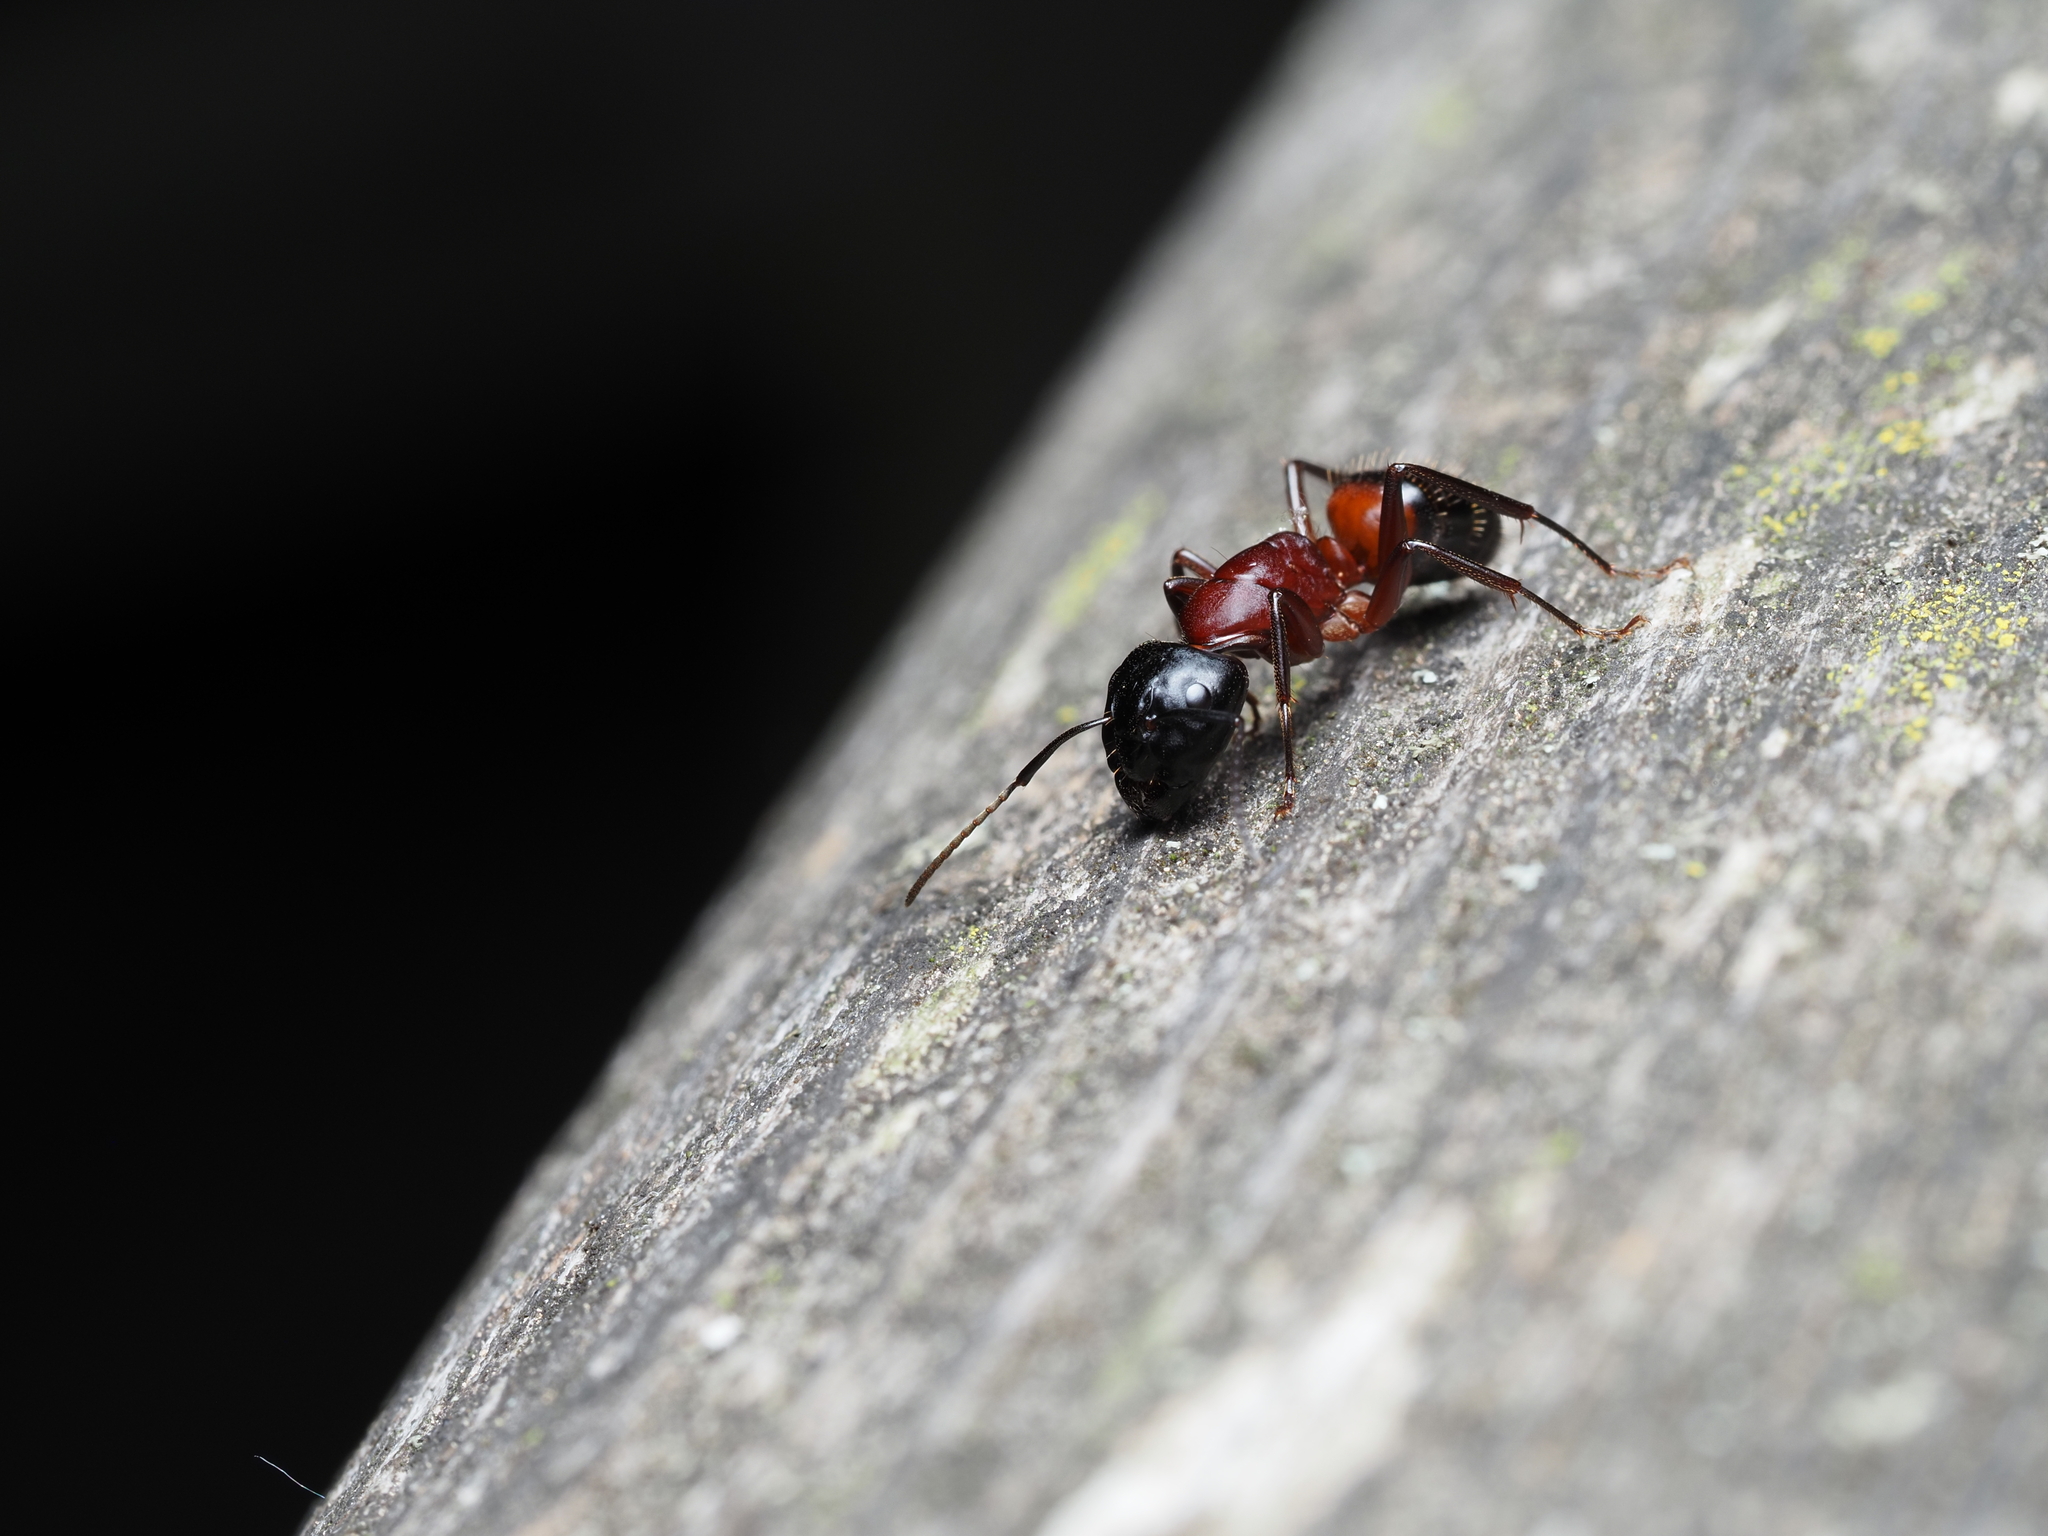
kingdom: Animalia
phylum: Arthropoda
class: Insecta
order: Hymenoptera
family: Formicidae
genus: Camponotus
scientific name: Camponotus ligniperdus
